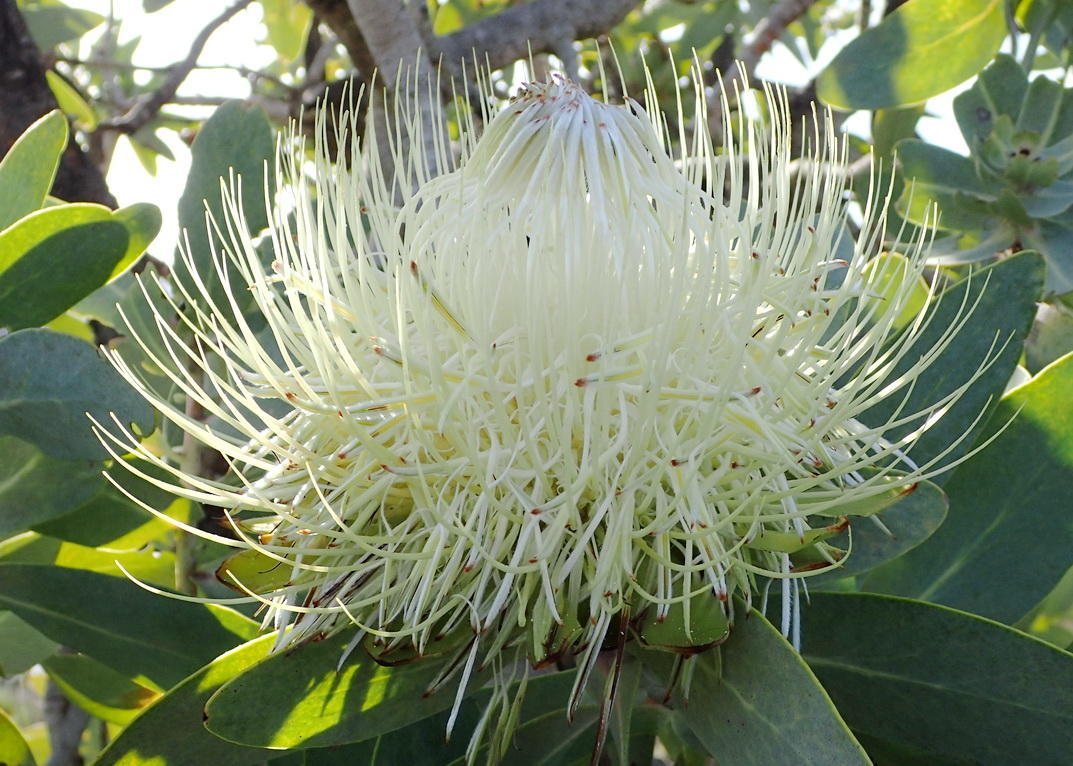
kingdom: Plantae
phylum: Tracheophyta
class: Magnoliopsida
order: Proteales
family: Proteaceae
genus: Protea
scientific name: Protea nitida
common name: Tree protea
